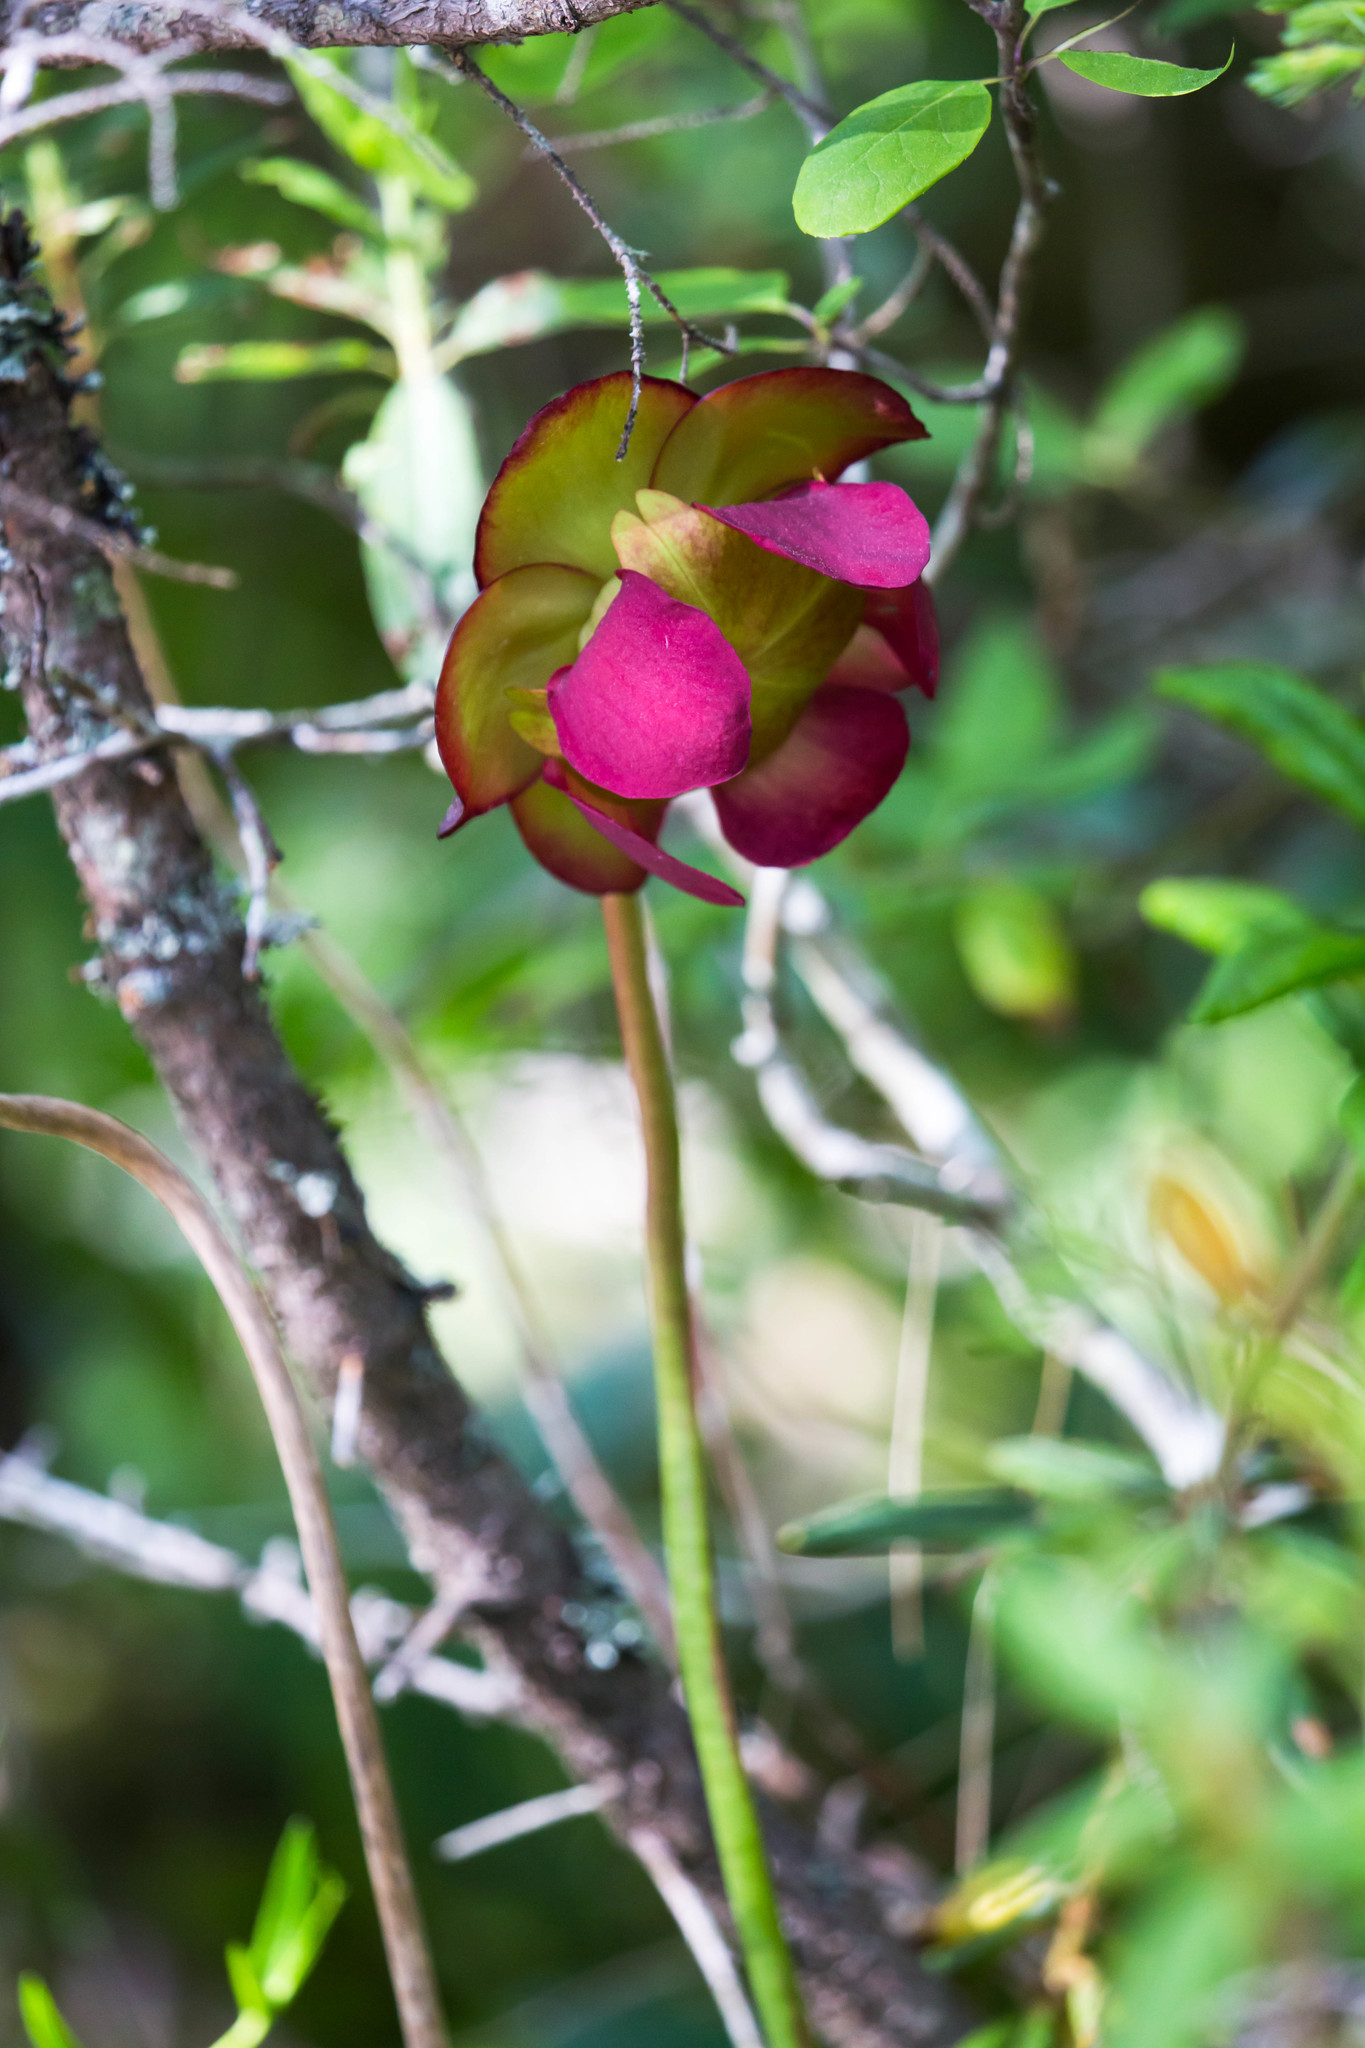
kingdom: Plantae
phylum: Tracheophyta
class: Magnoliopsida
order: Ericales
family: Sarraceniaceae
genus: Sarracenia
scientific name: Sarracenia purpurea
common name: Pitcherplant
